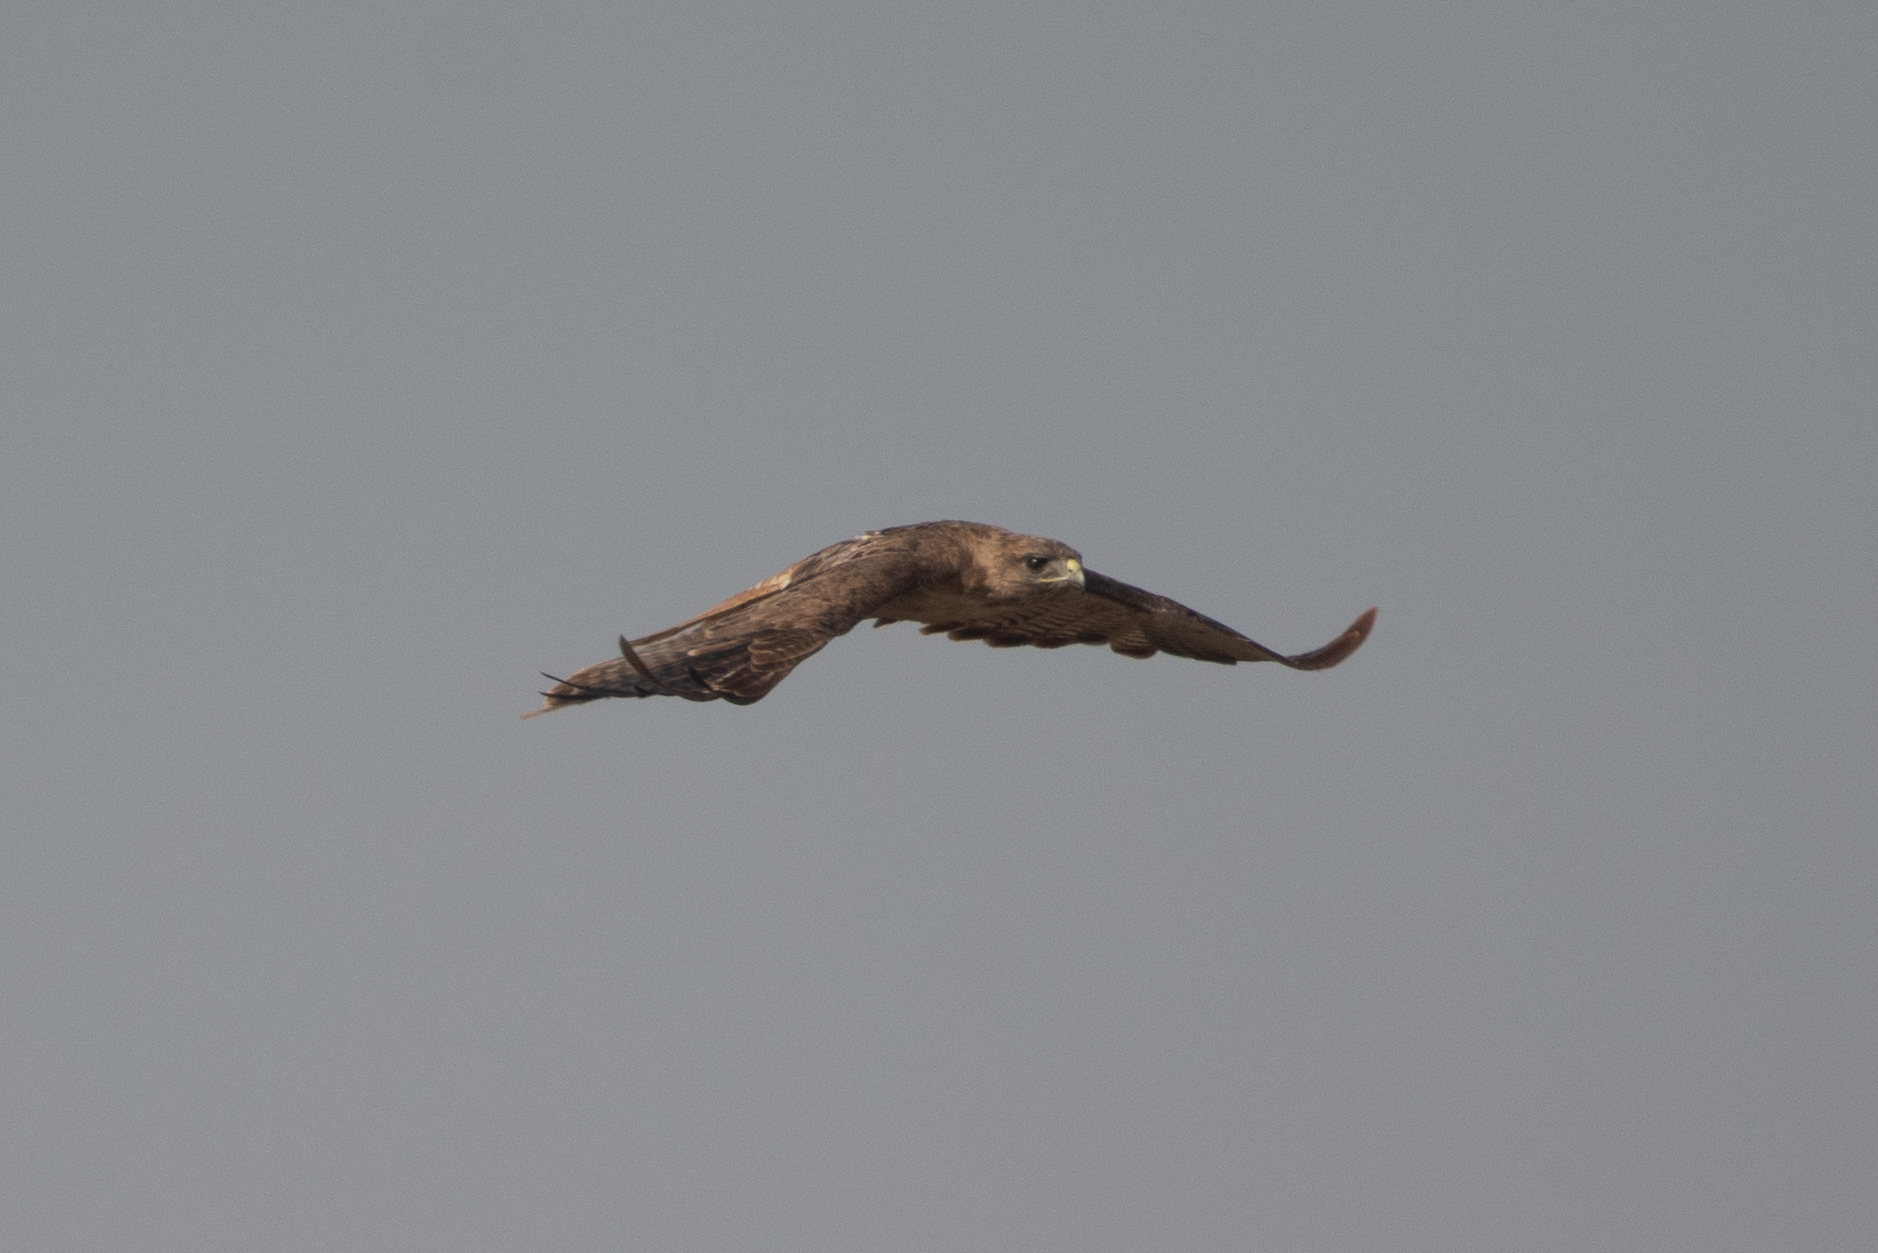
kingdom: Animalia
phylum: Chordata
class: Aves
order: Accipitriformes
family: Accipitridae
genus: Buteo
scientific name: Buteo jamaicensis
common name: Red-tailed hawk
